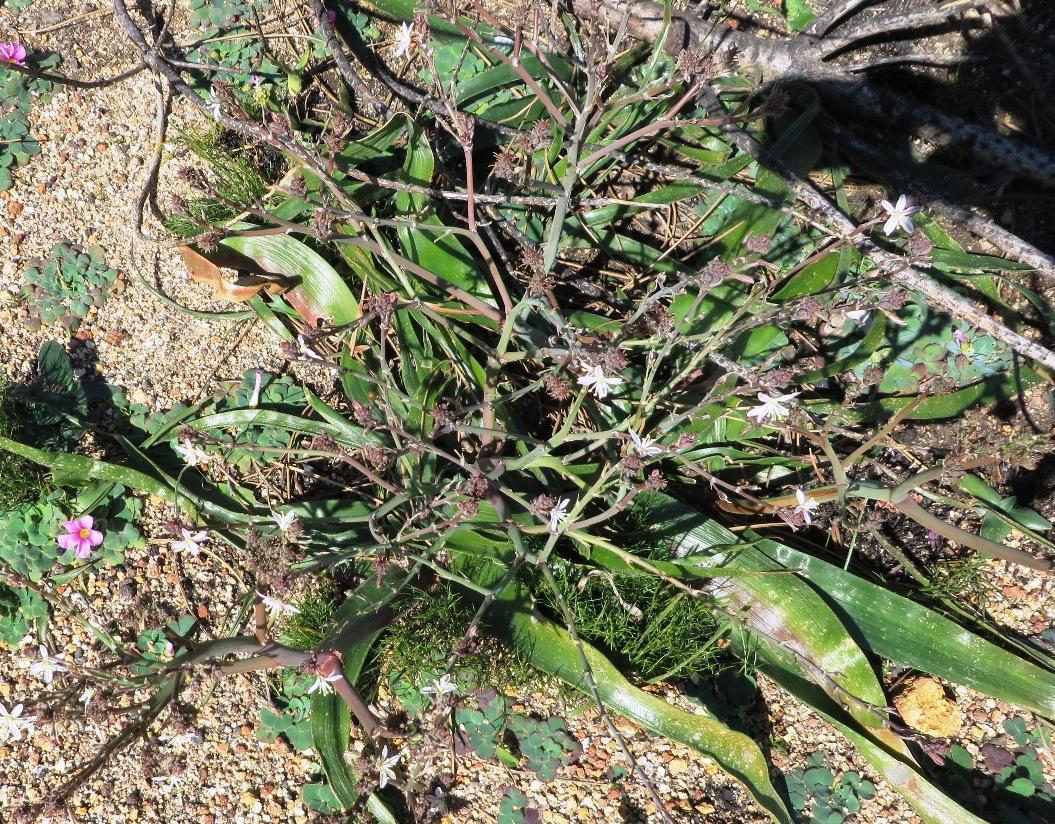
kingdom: Plantae
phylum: Tracheophyta
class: Liliopsida
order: Asparagales
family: Asphodelaceae
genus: Trachyandra
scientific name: Trachyandra divaricata
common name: Dune onionweed
